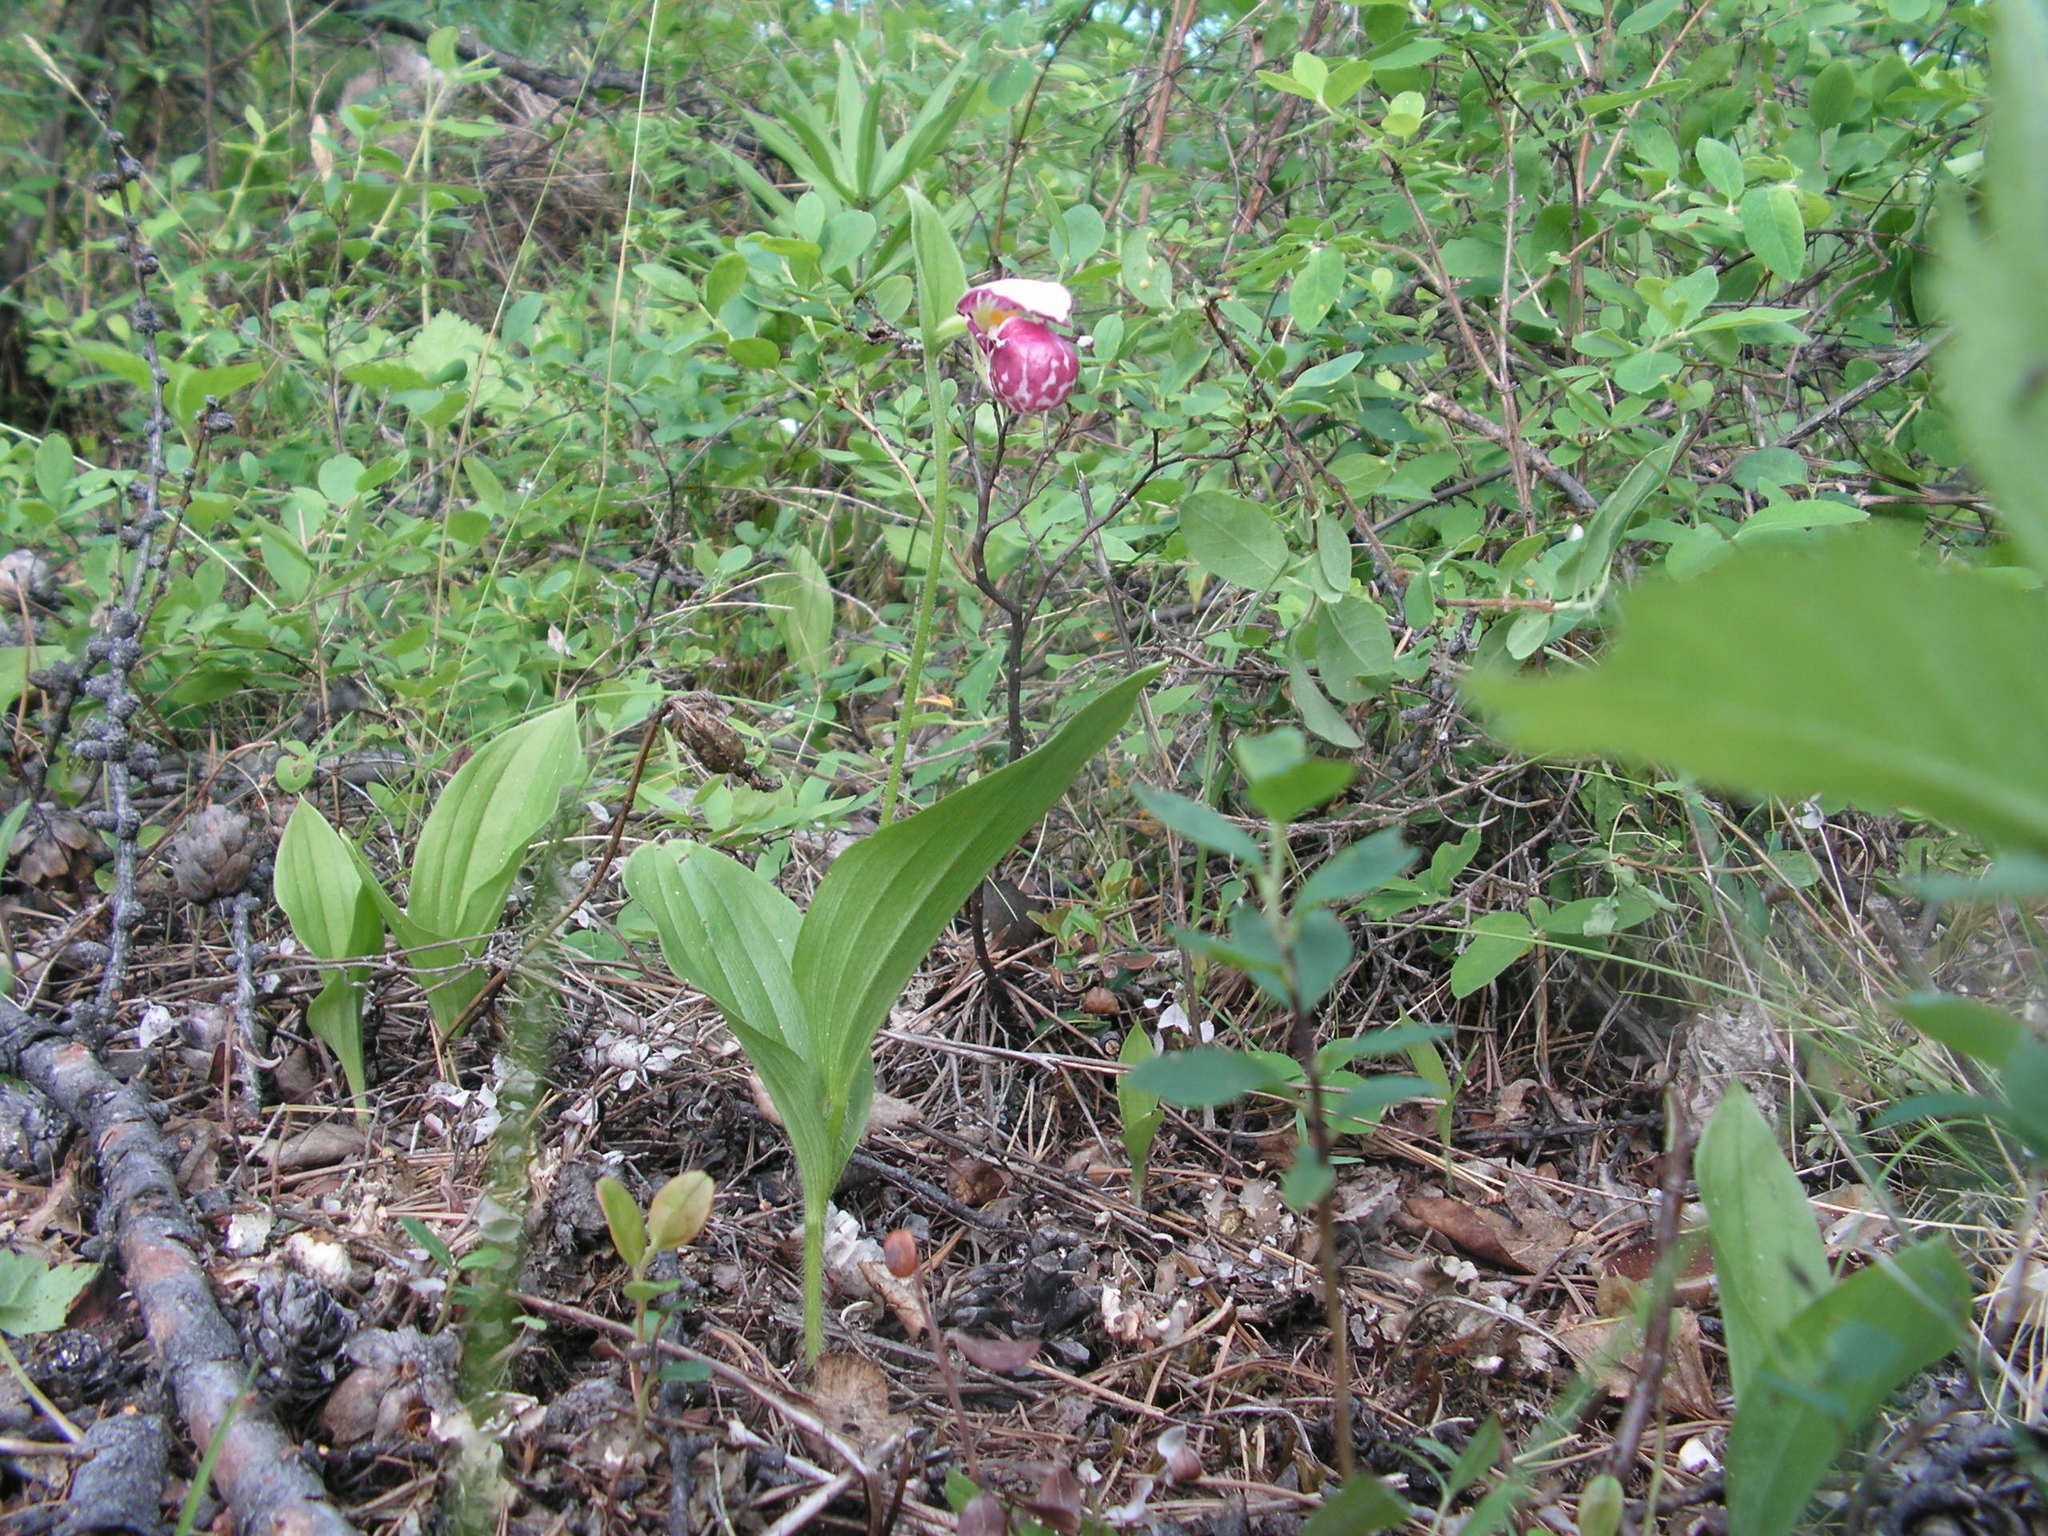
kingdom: Plantae
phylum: Tracheophyta
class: Liliopsida
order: Asparagales
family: Orchidaceae
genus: Cypripedium
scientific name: Cypripedium guttatum
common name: Pink lady slipper
